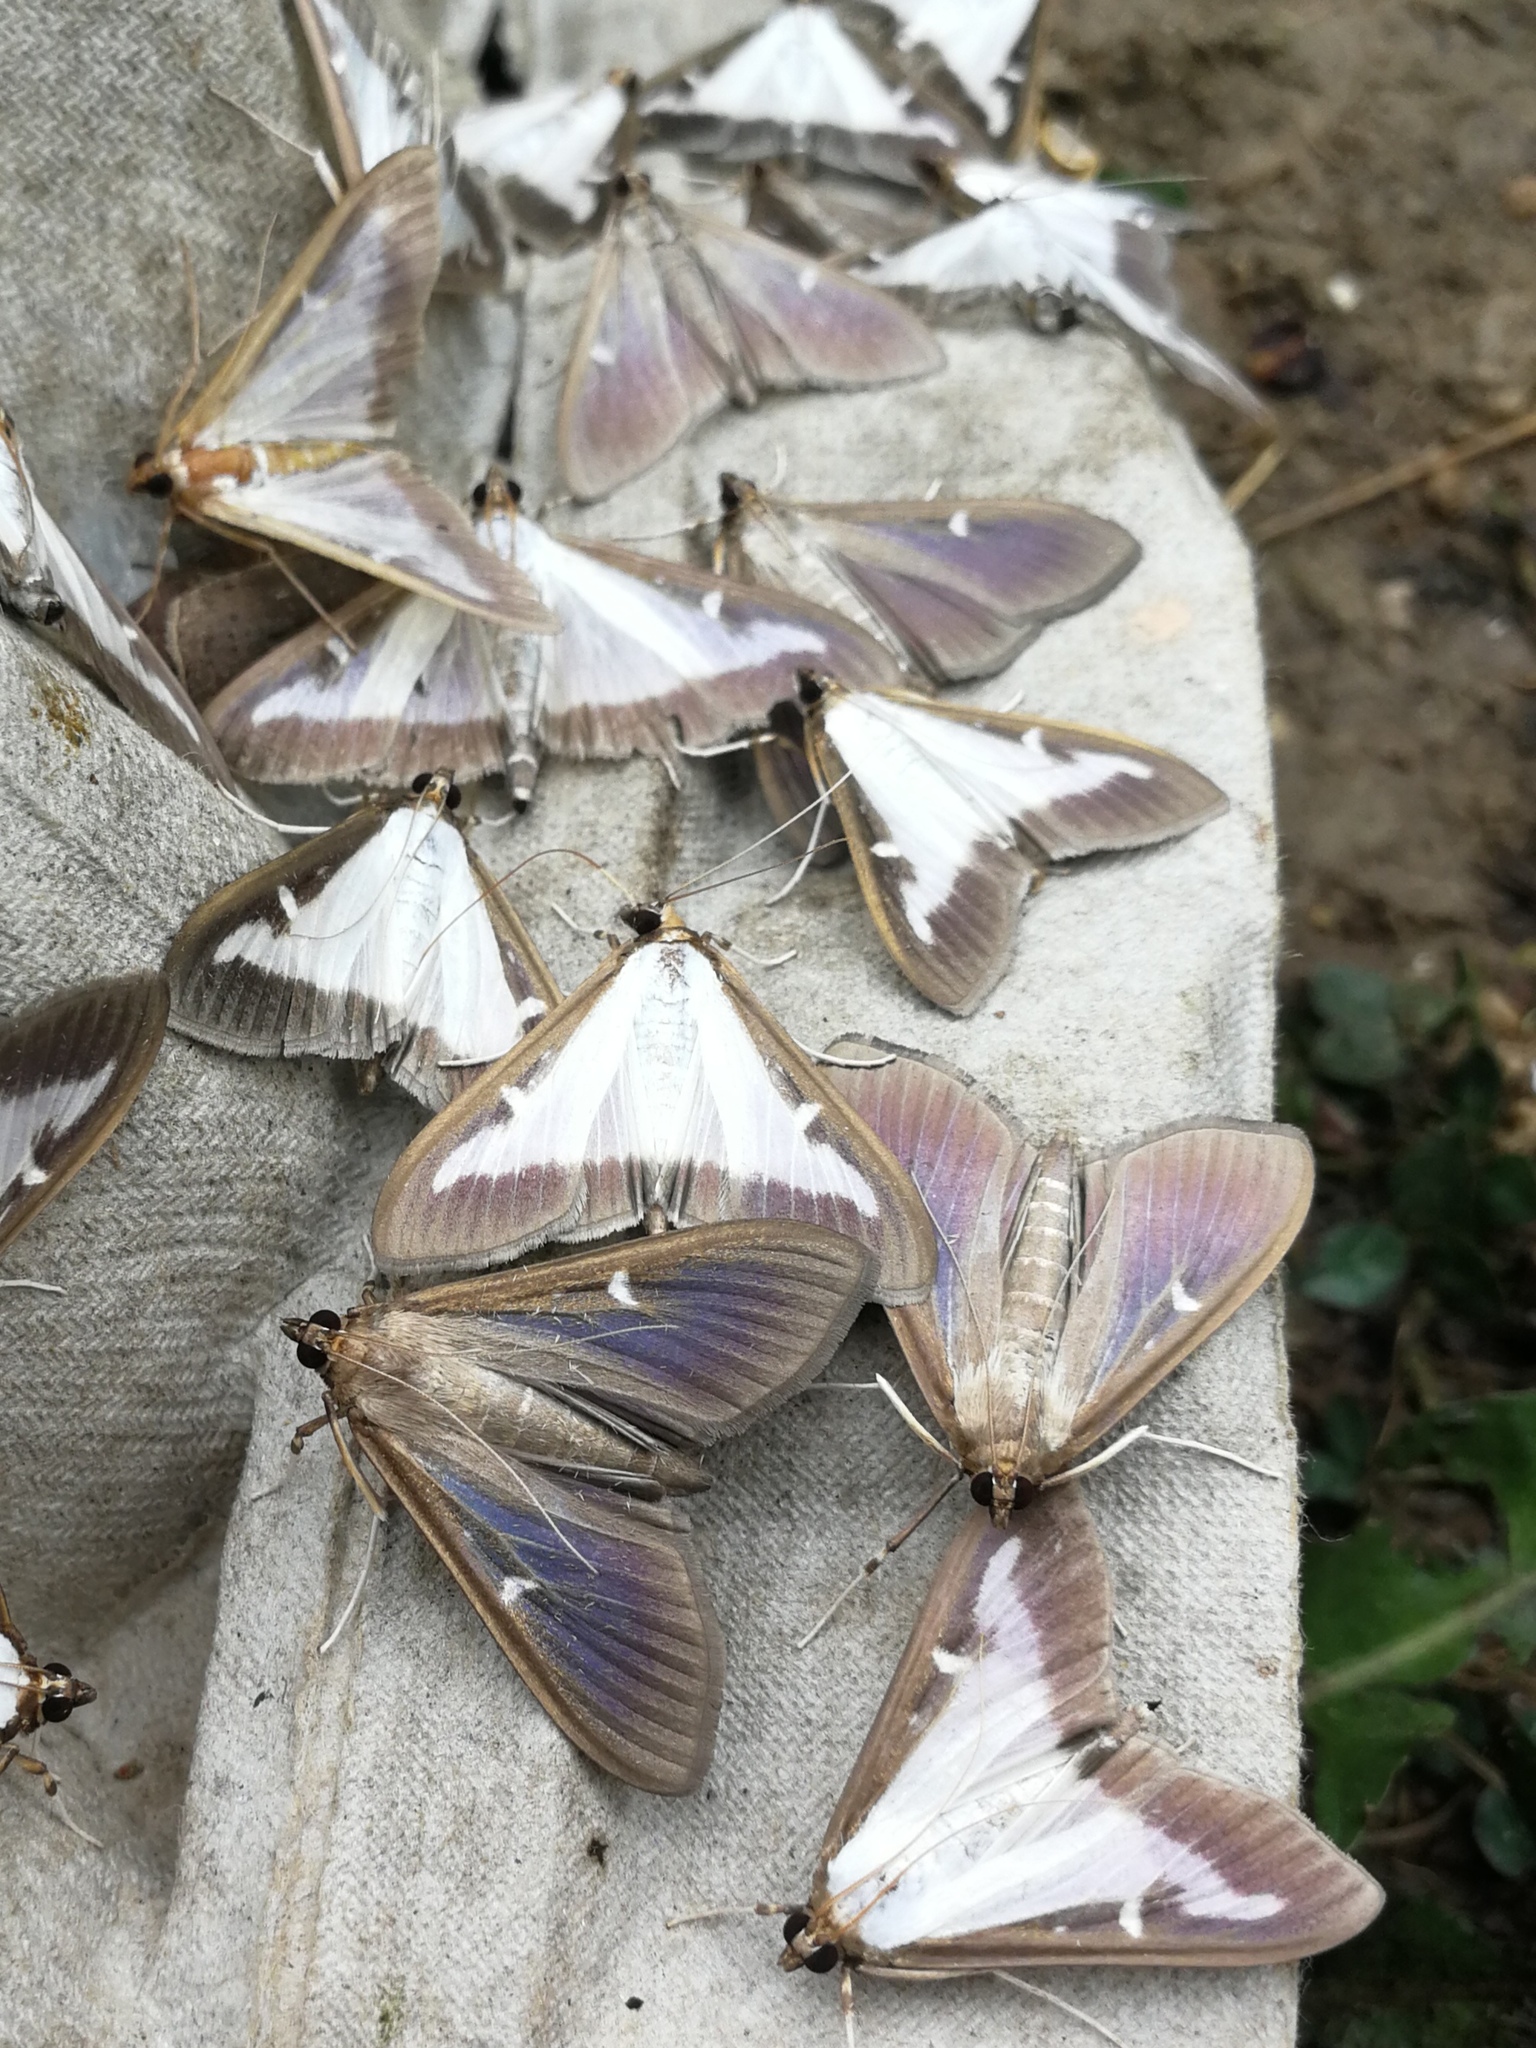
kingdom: Animalia
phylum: Arthropoda
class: Insecta
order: Lepidoptera
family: Crambidae
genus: Cydalima
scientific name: Cydalima perspectalis
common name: Box tree moth
